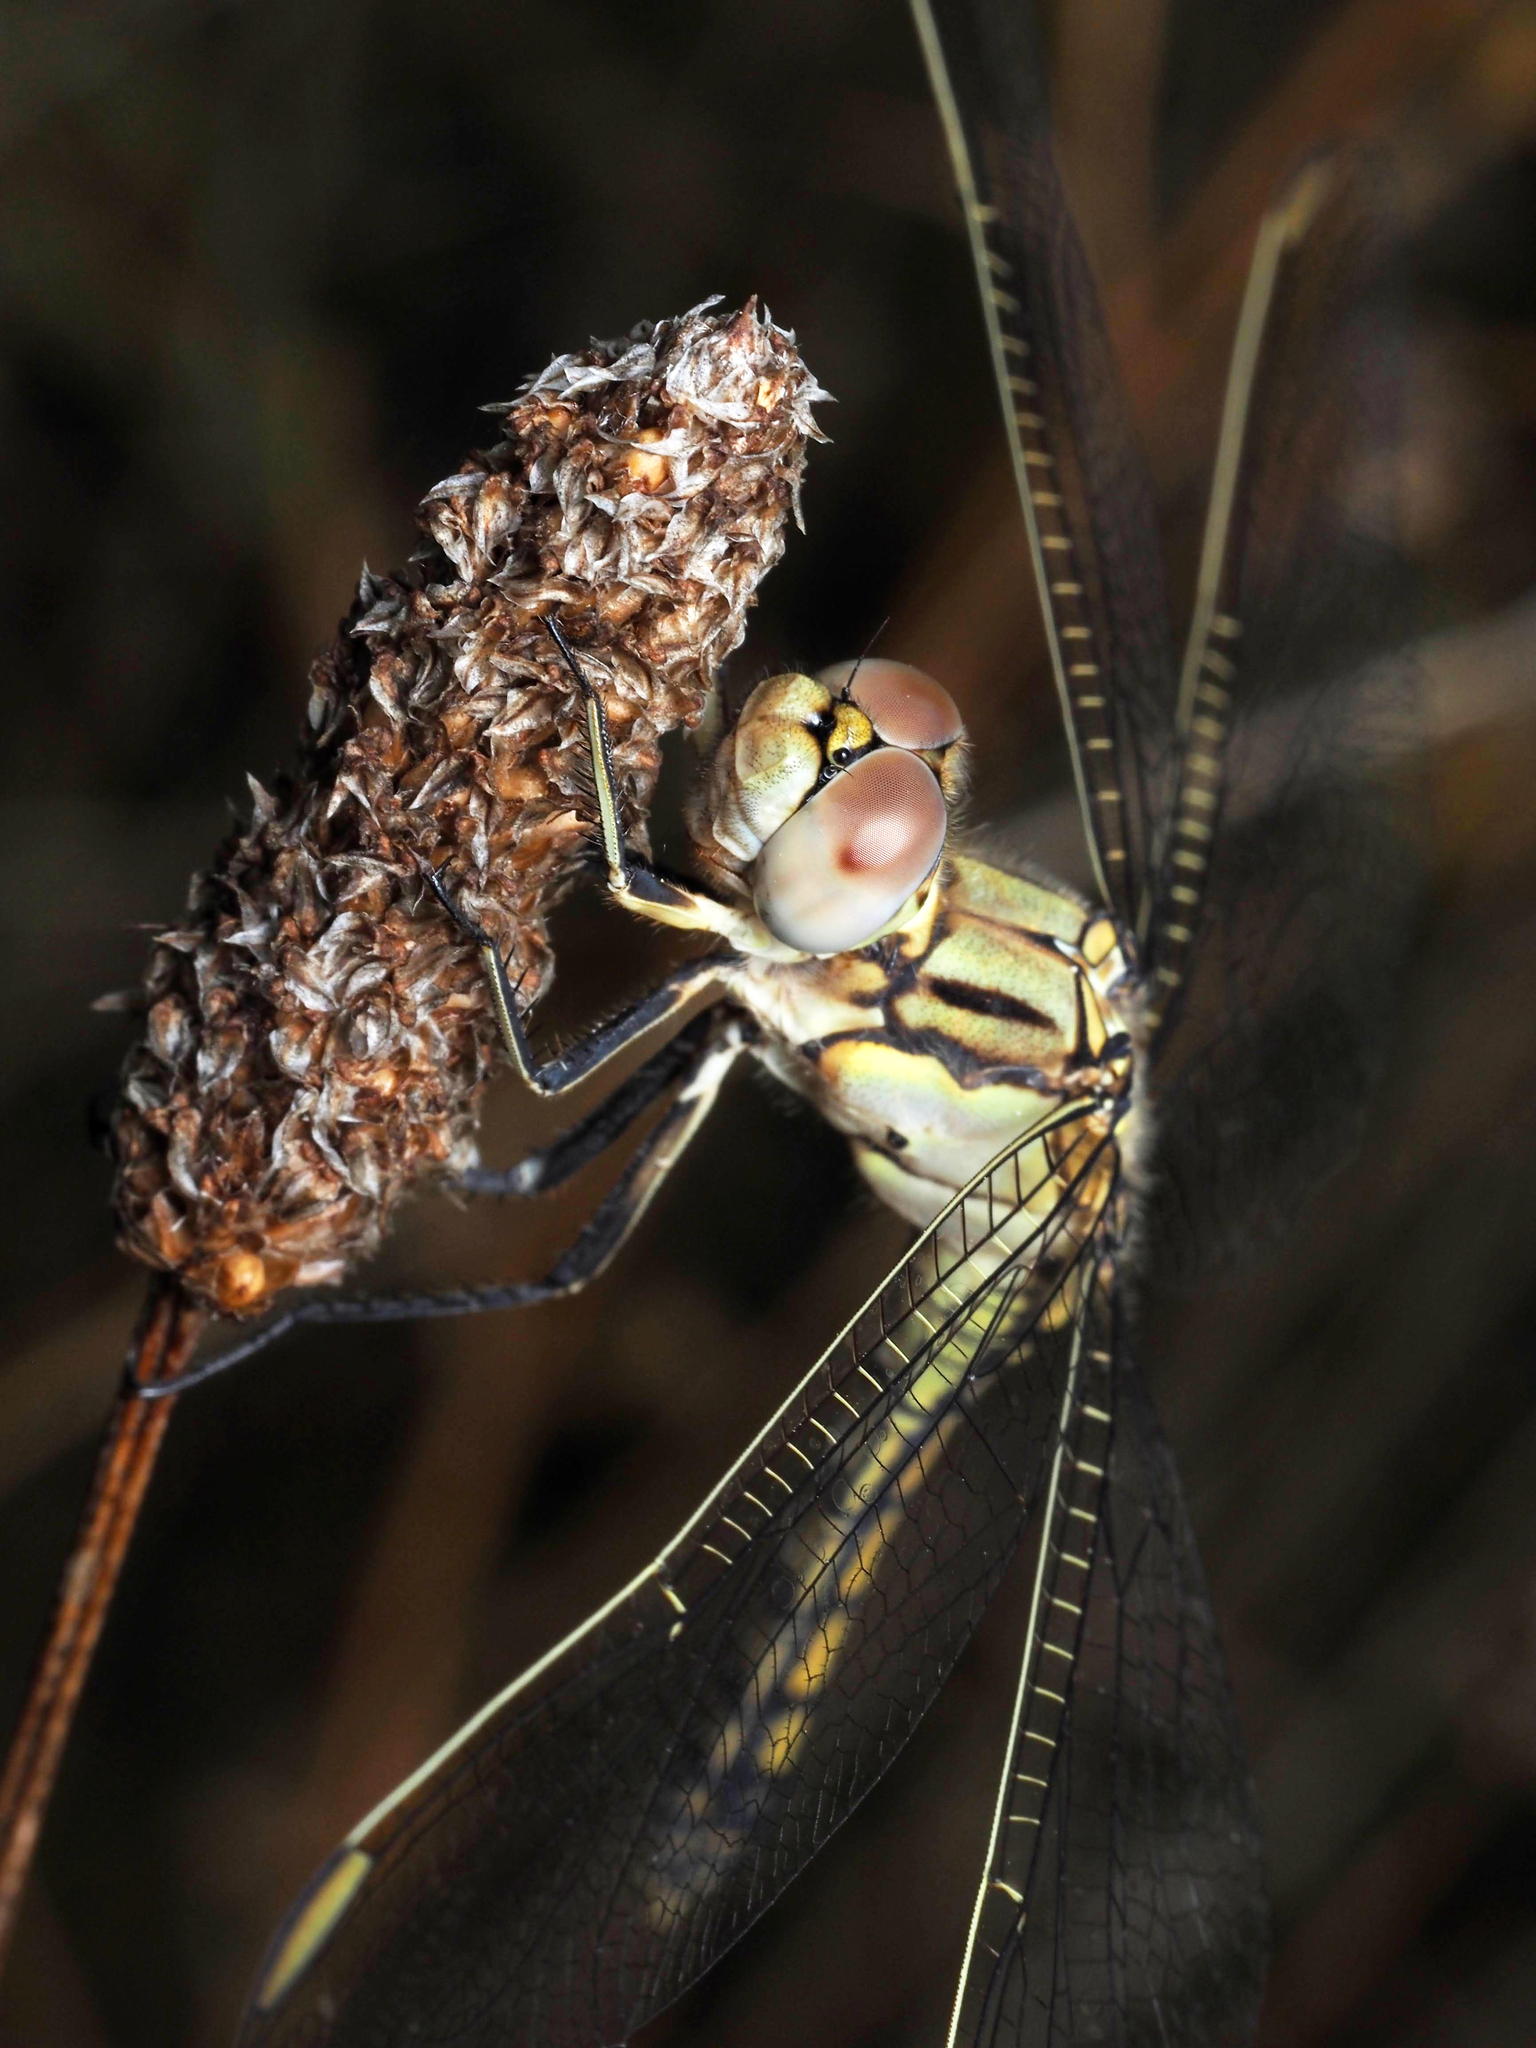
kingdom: Animalia
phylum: Arthropoda
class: Insecta
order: Odonata
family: Libellulidae
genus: Orthetrum
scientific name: Orthetrum caledonicum
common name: Blue skimmer
